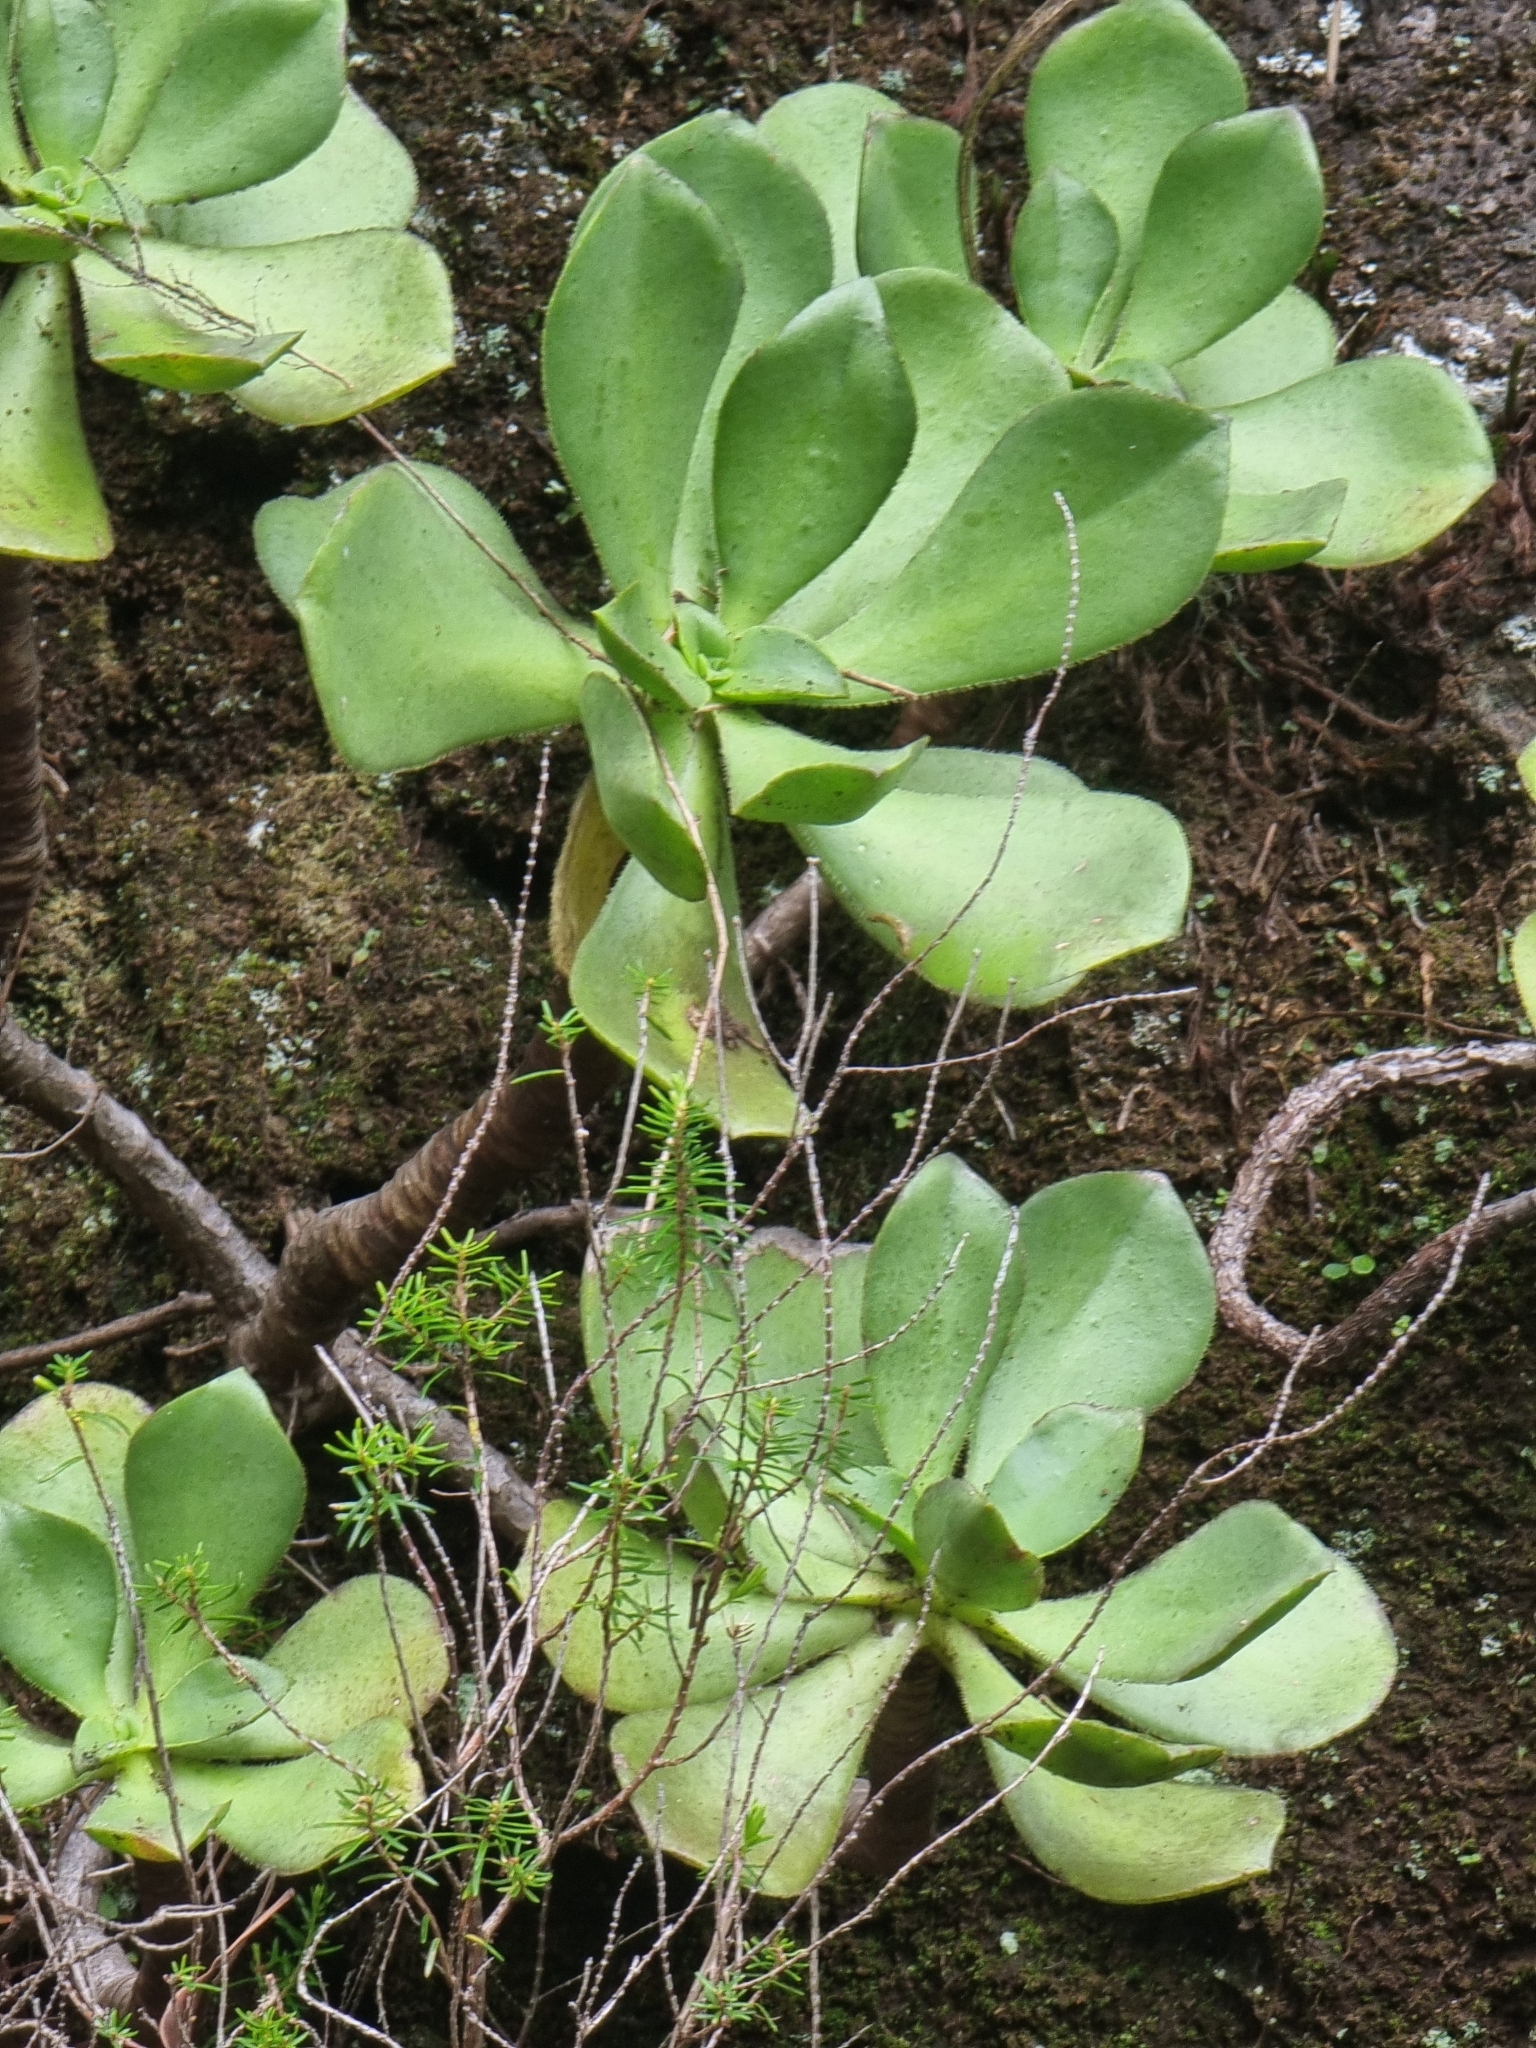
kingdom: Plantae
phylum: Tracheophyta
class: Magnoliopsida
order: Saxifragales
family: Crassulaceae
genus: Aeonium
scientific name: Aeonium glutinosum
